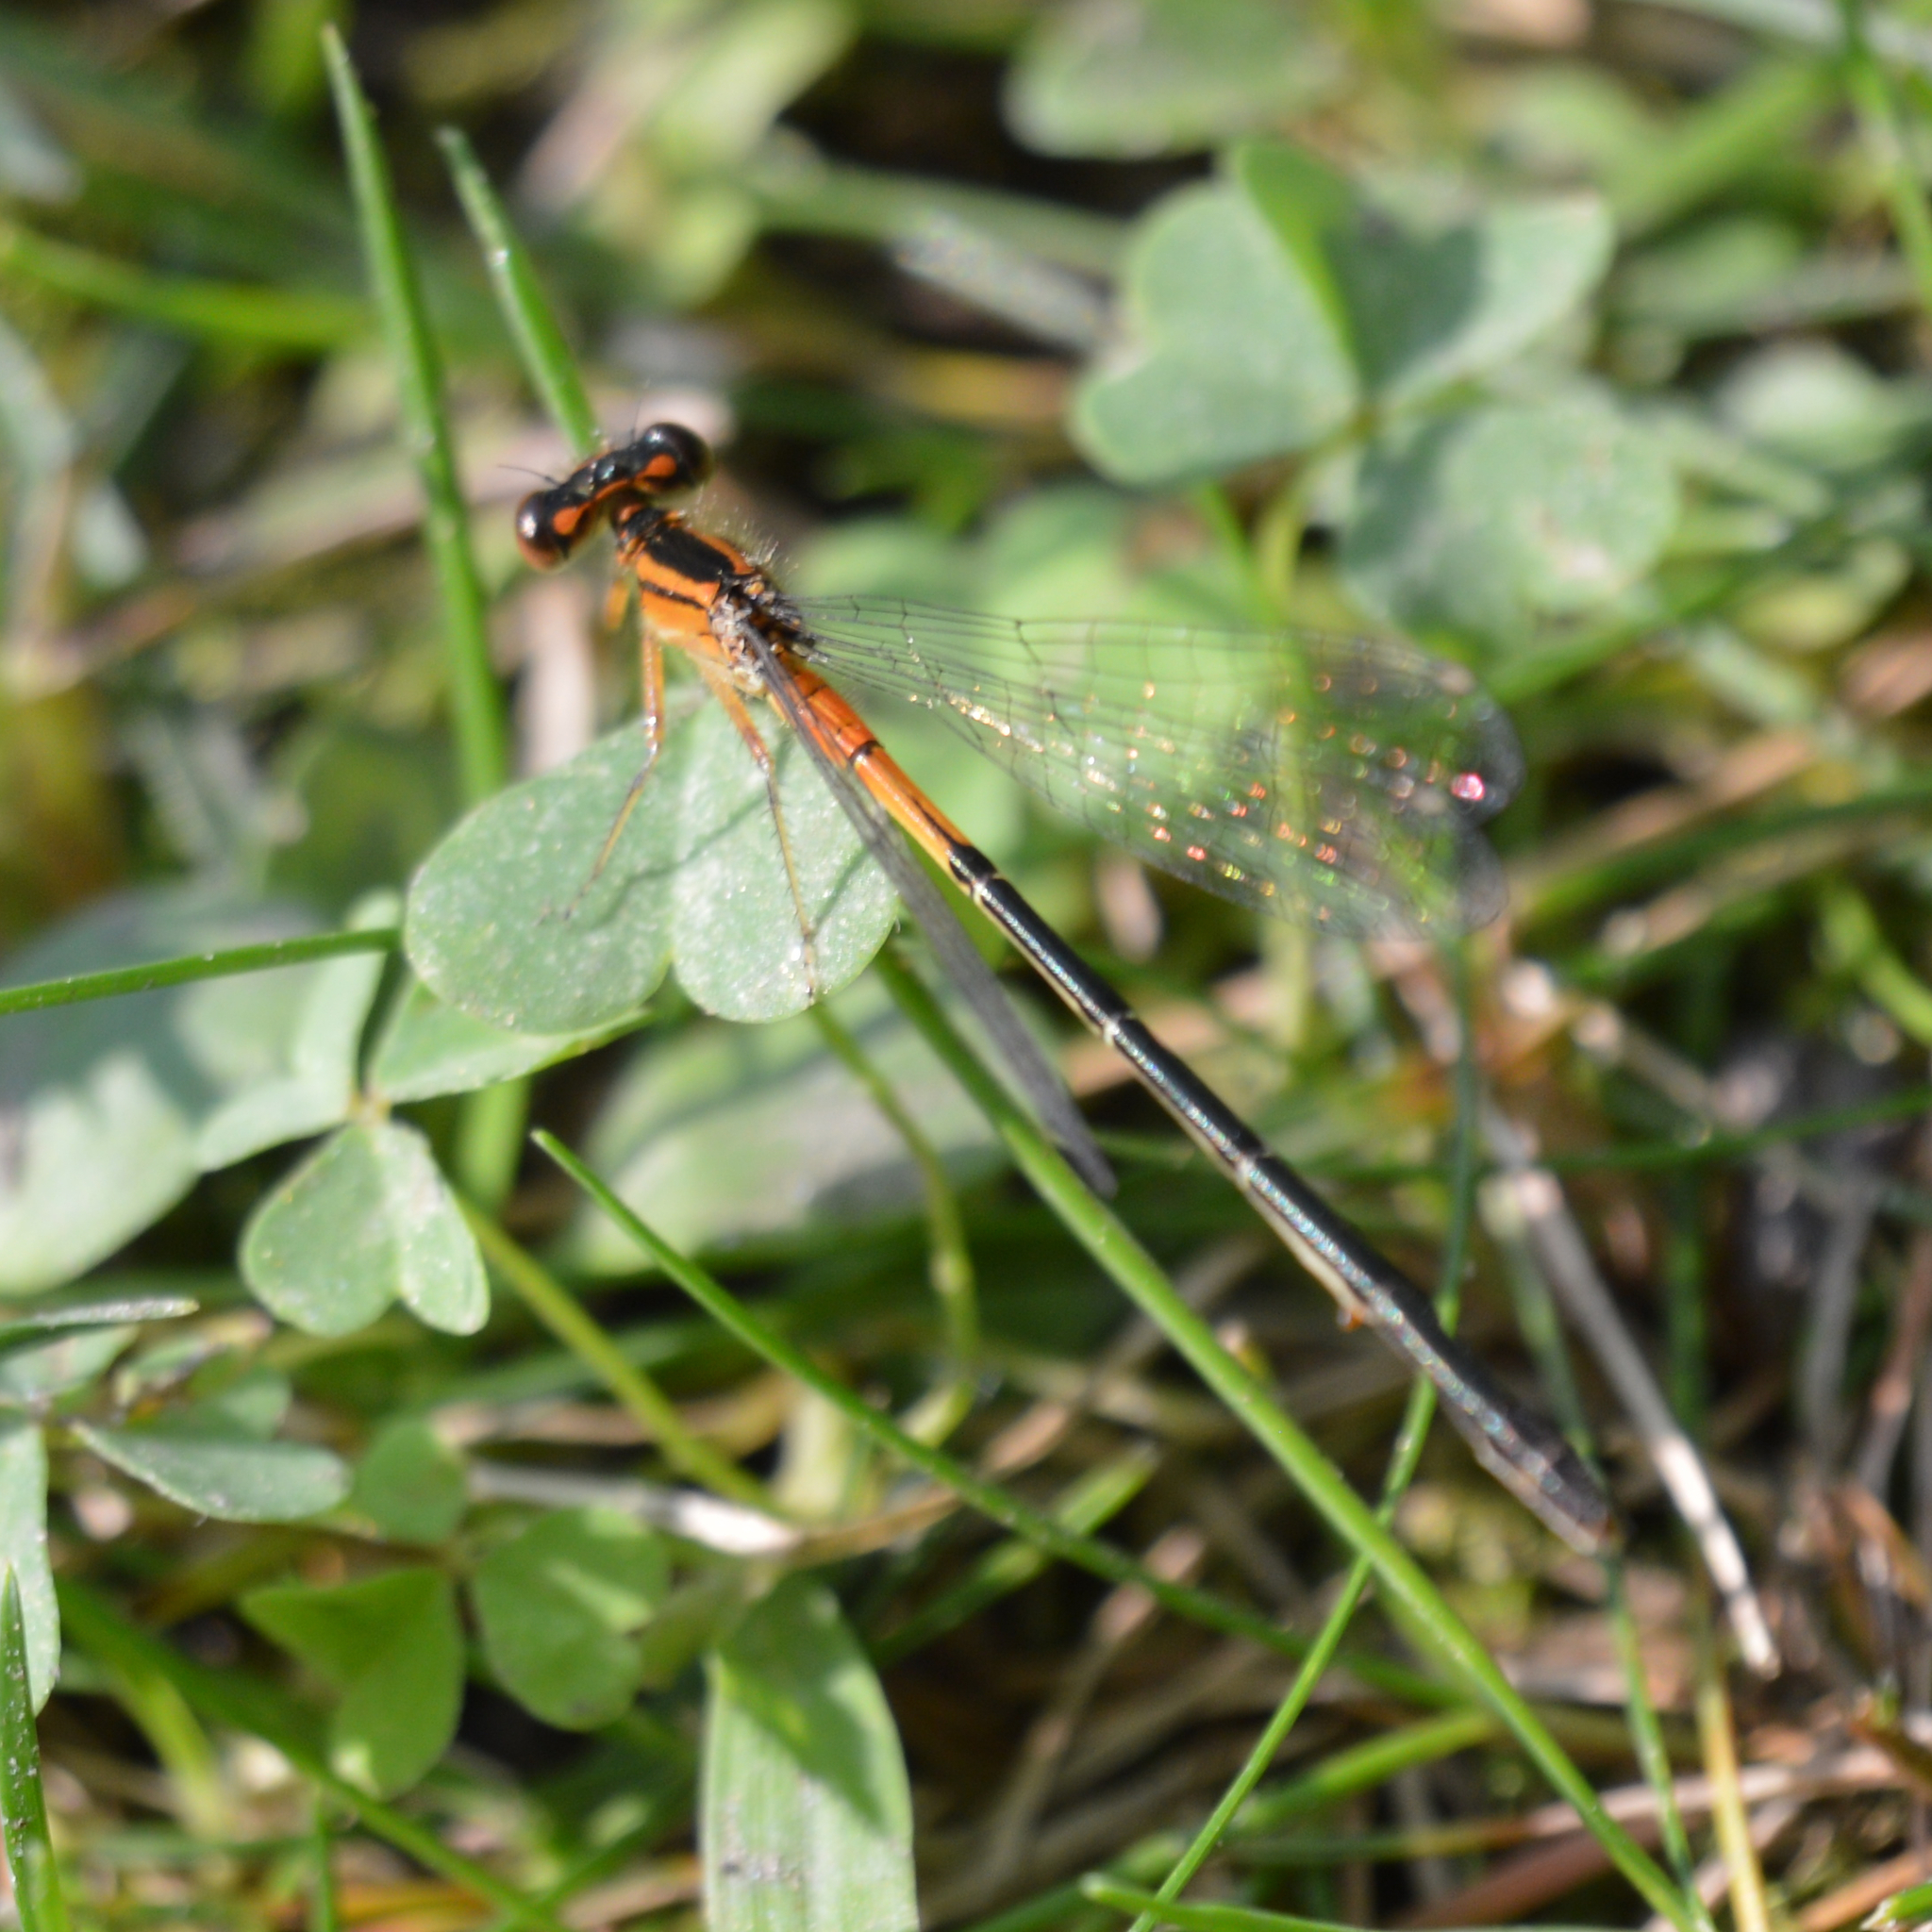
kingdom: Animalia
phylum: Arthropoda
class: Insecta
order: Odonata
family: Coenagrionidae
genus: Ischnura
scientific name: Ischnura verticalis
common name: Eastern forktail
